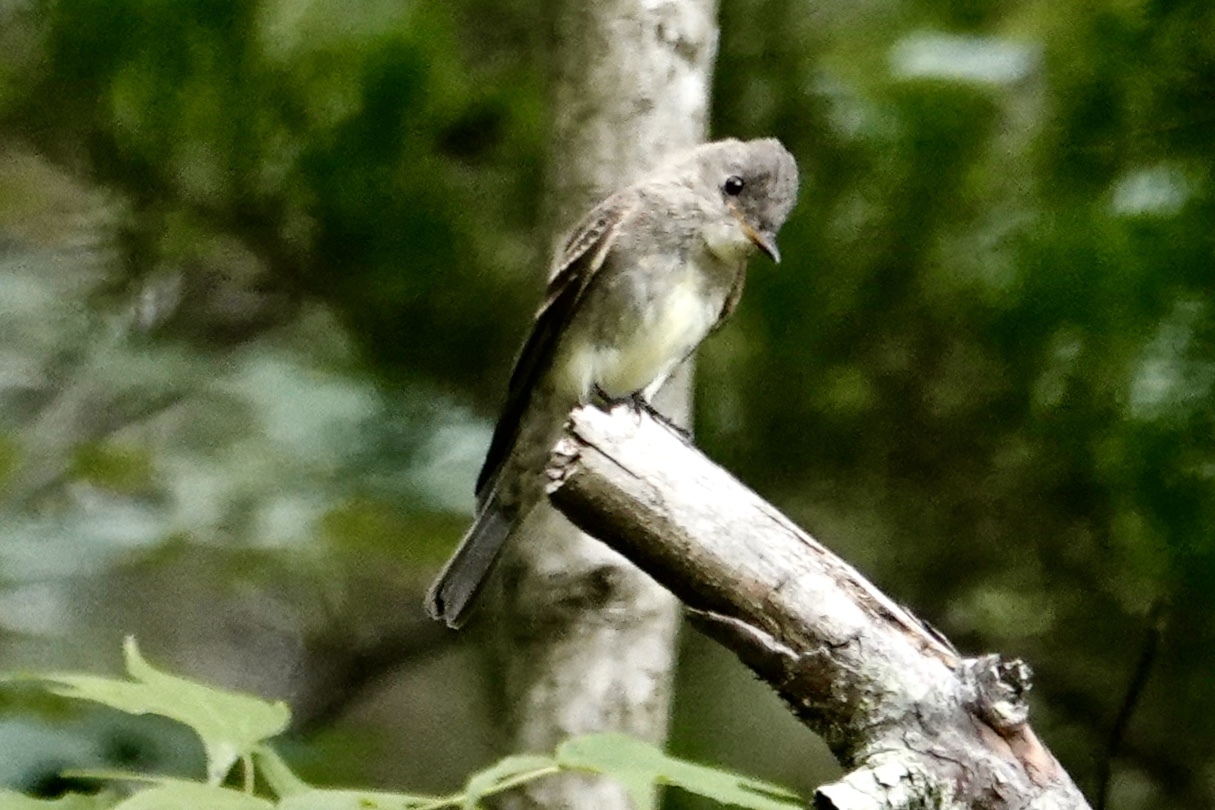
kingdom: Animalia
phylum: Chordata
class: Aves
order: Passeriformes
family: Tyrannidae
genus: Contopus
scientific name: Contopus virens
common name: Eastern wood-pewee
